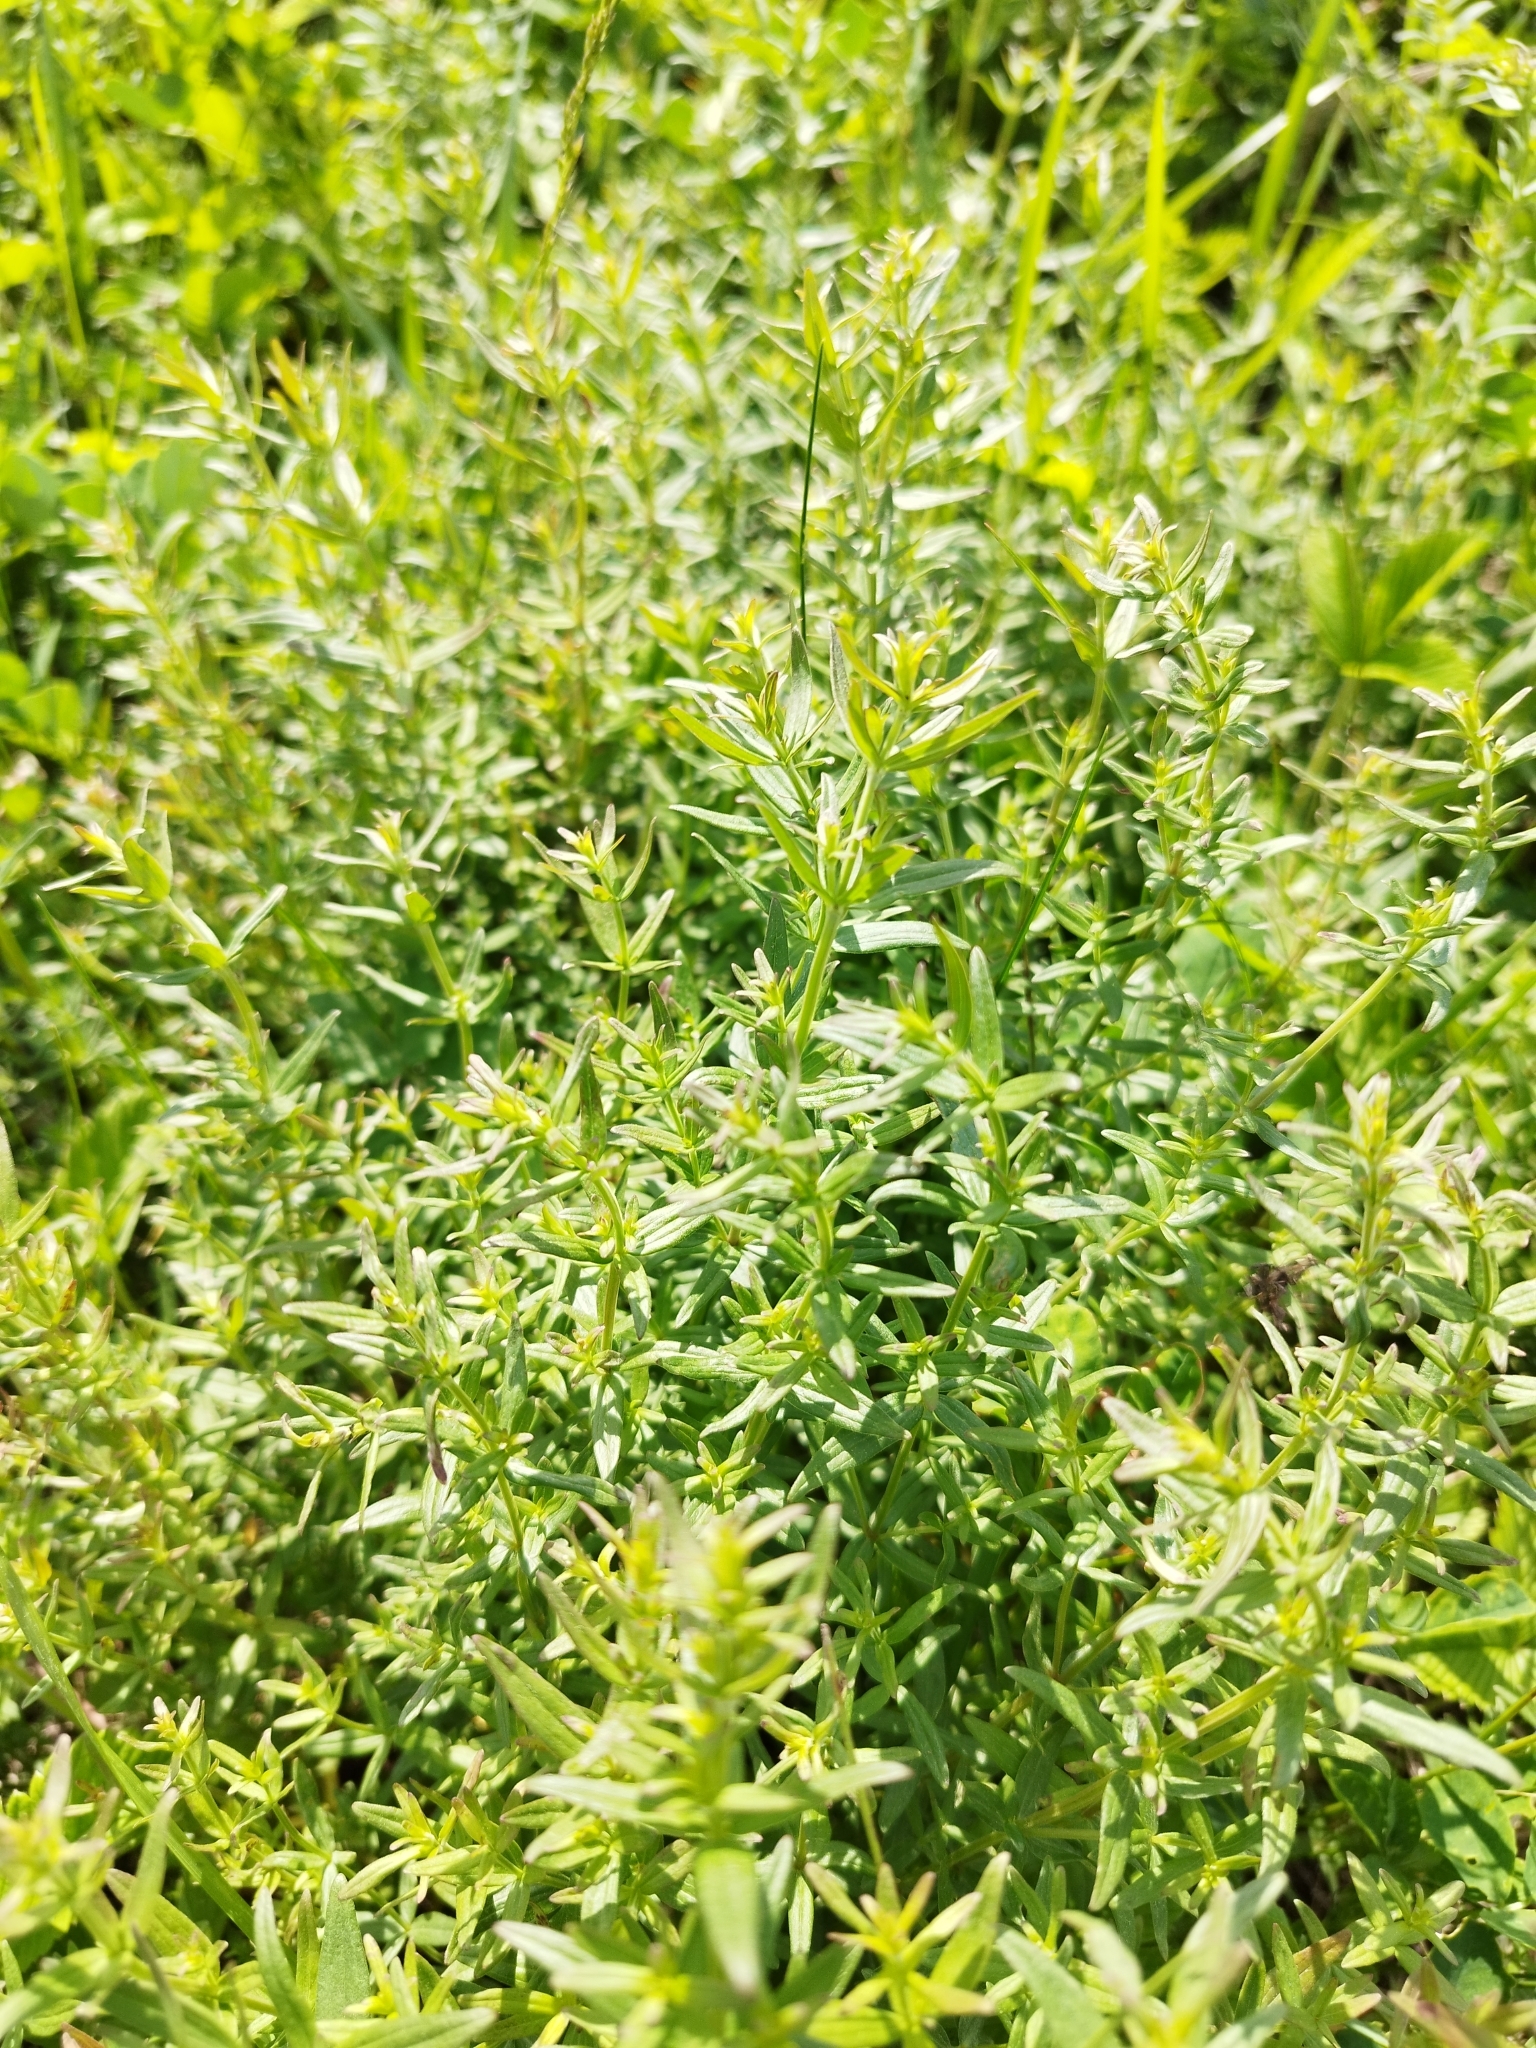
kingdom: Plantae
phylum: Tracheophyta
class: Magnoliopsida
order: Gentianales
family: Rubiaceae
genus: Galium
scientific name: Galium boreale
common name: Northern bedstraw
